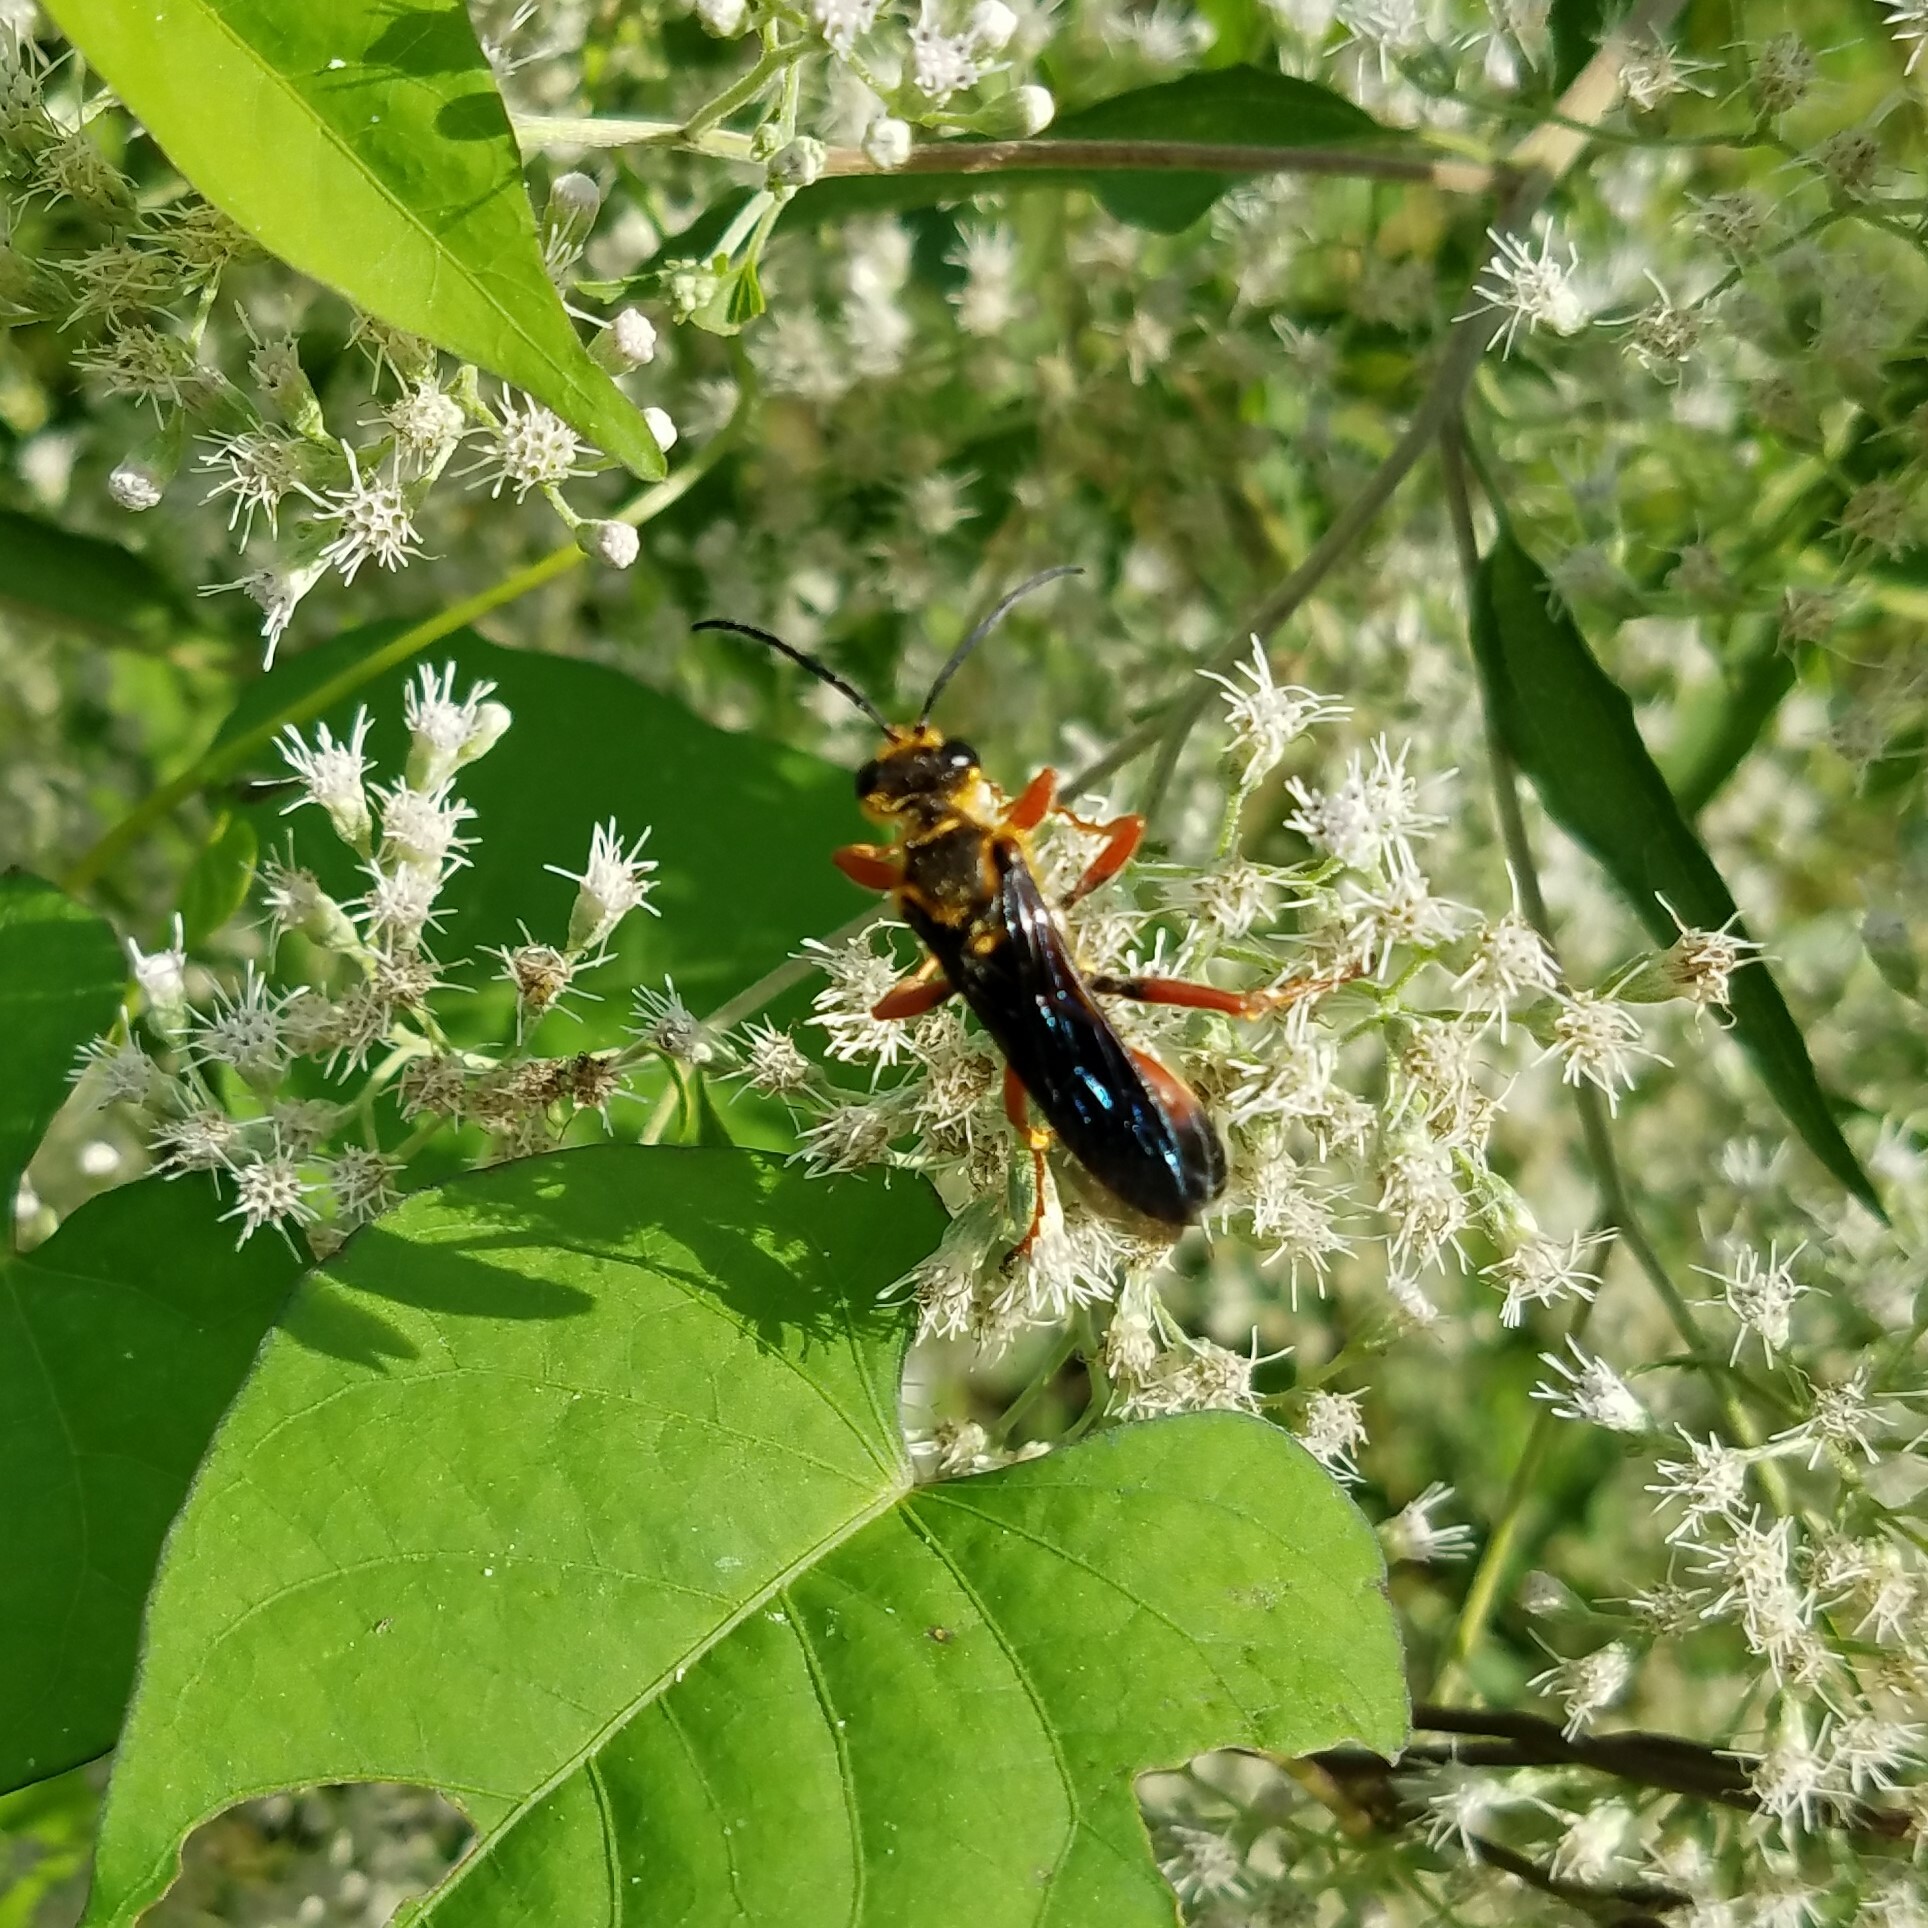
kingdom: Animalia
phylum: Arthropoda
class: Insecta
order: Hymenoptera
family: Sphecidae
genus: Sphex
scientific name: Sphex ichneumoneus
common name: Great golden digger wasp
